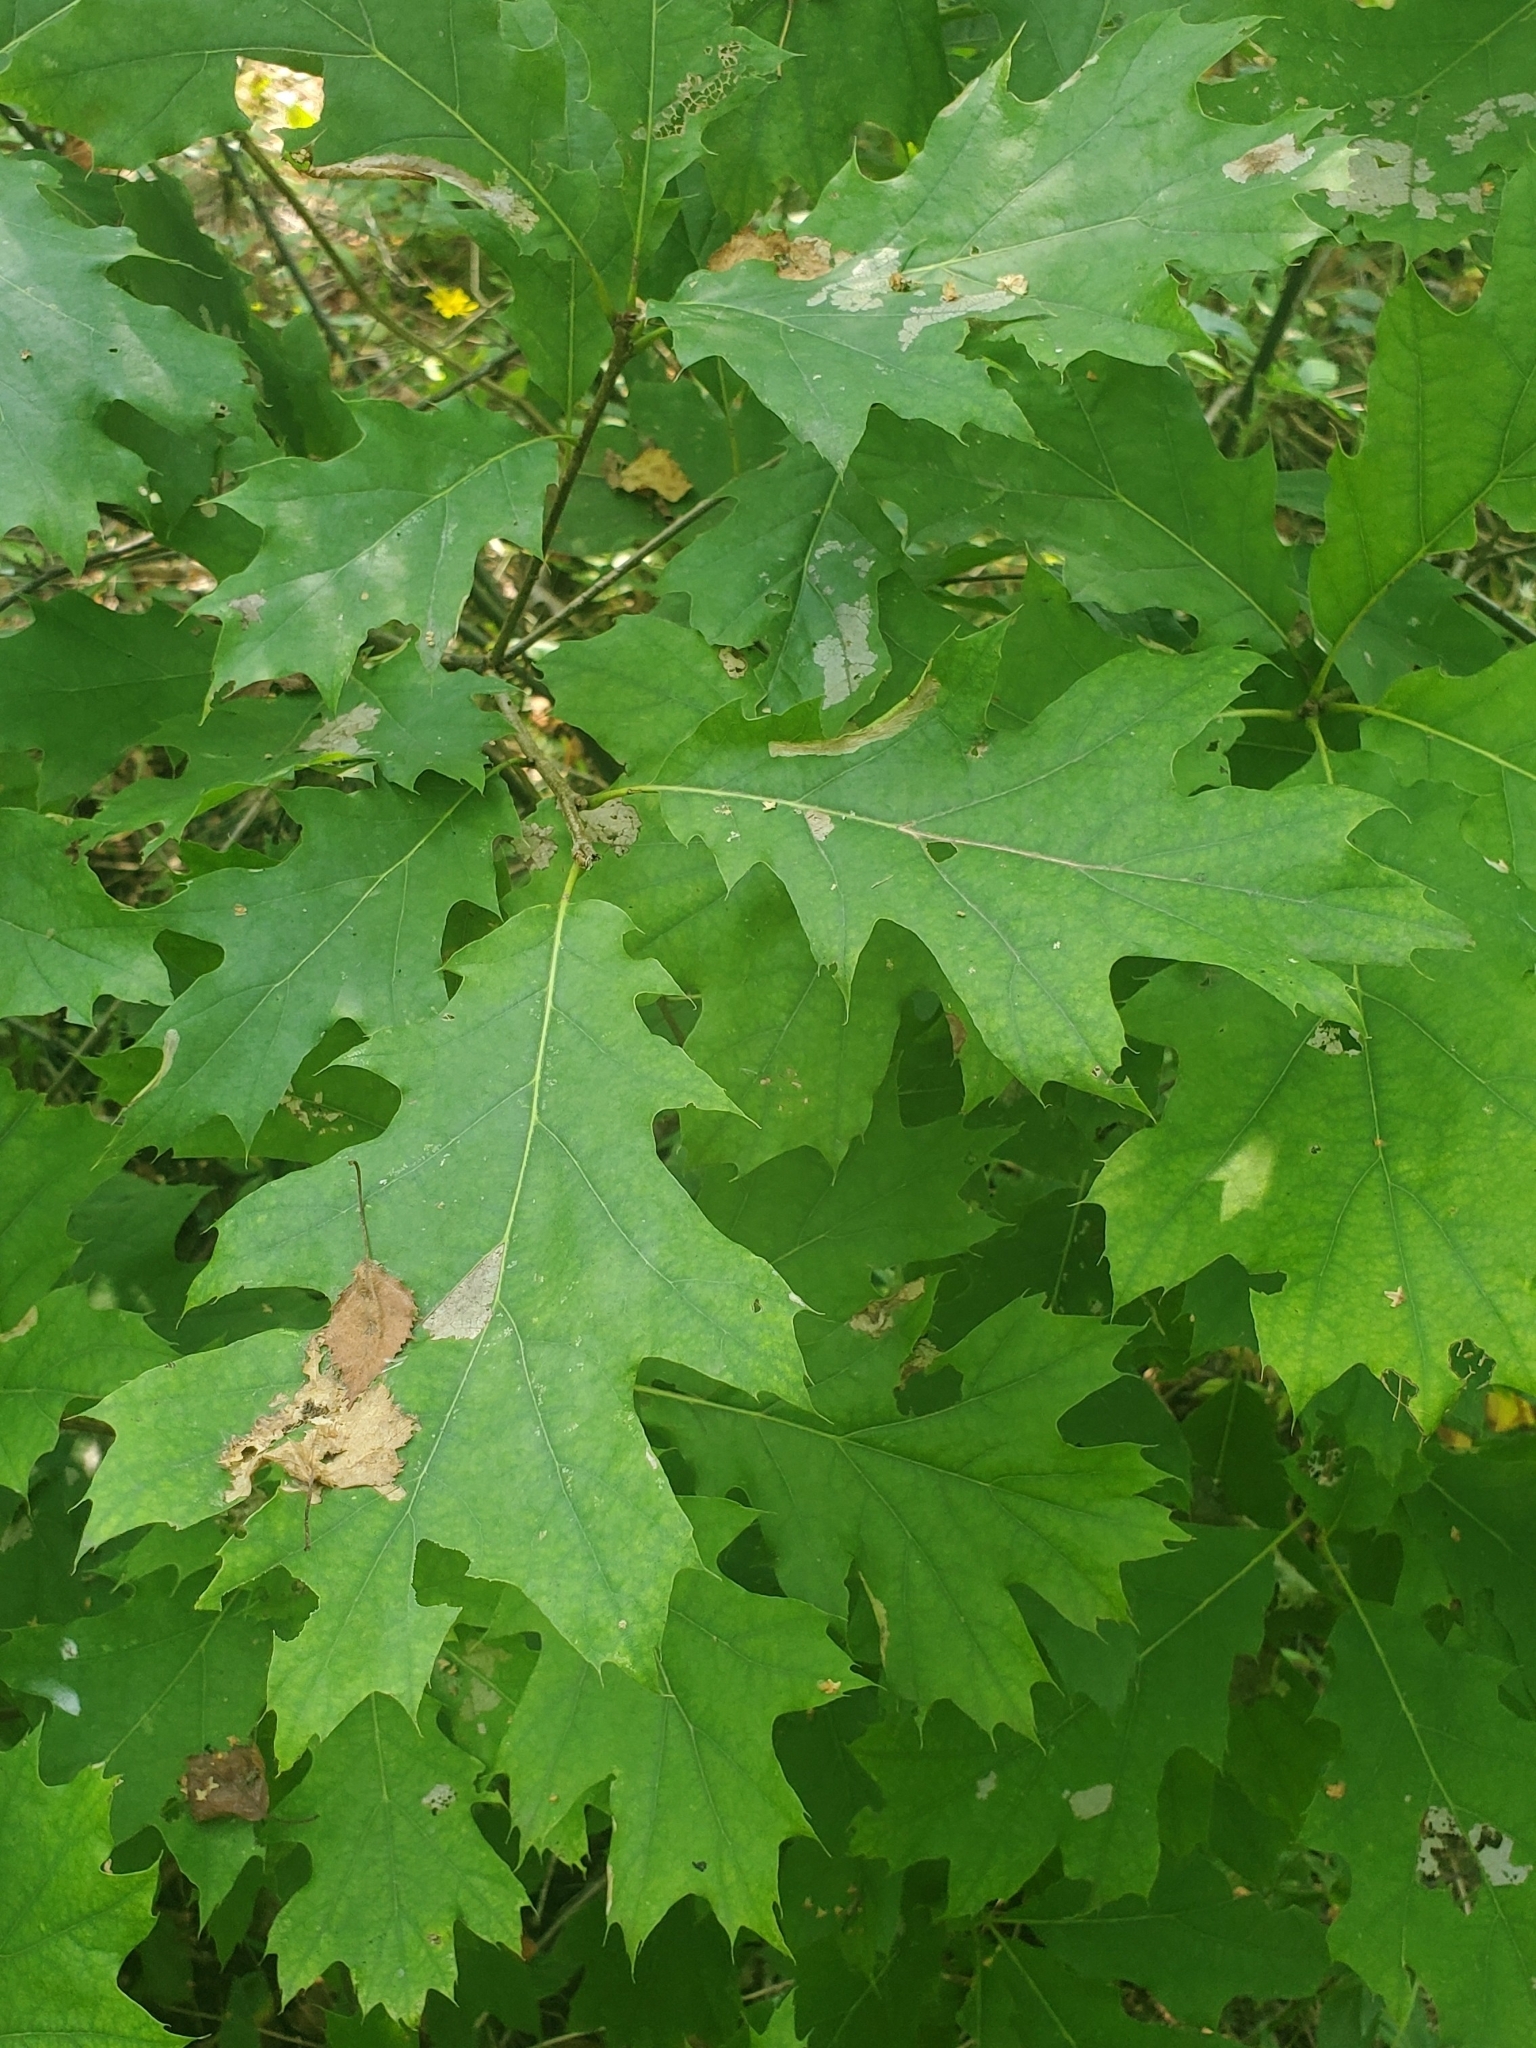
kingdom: Plantae
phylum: Tracheophyta
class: Magnoliopsida
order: Fagales
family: Fagaceae
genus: Quercus
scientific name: Quercus rubra
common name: Red oak
